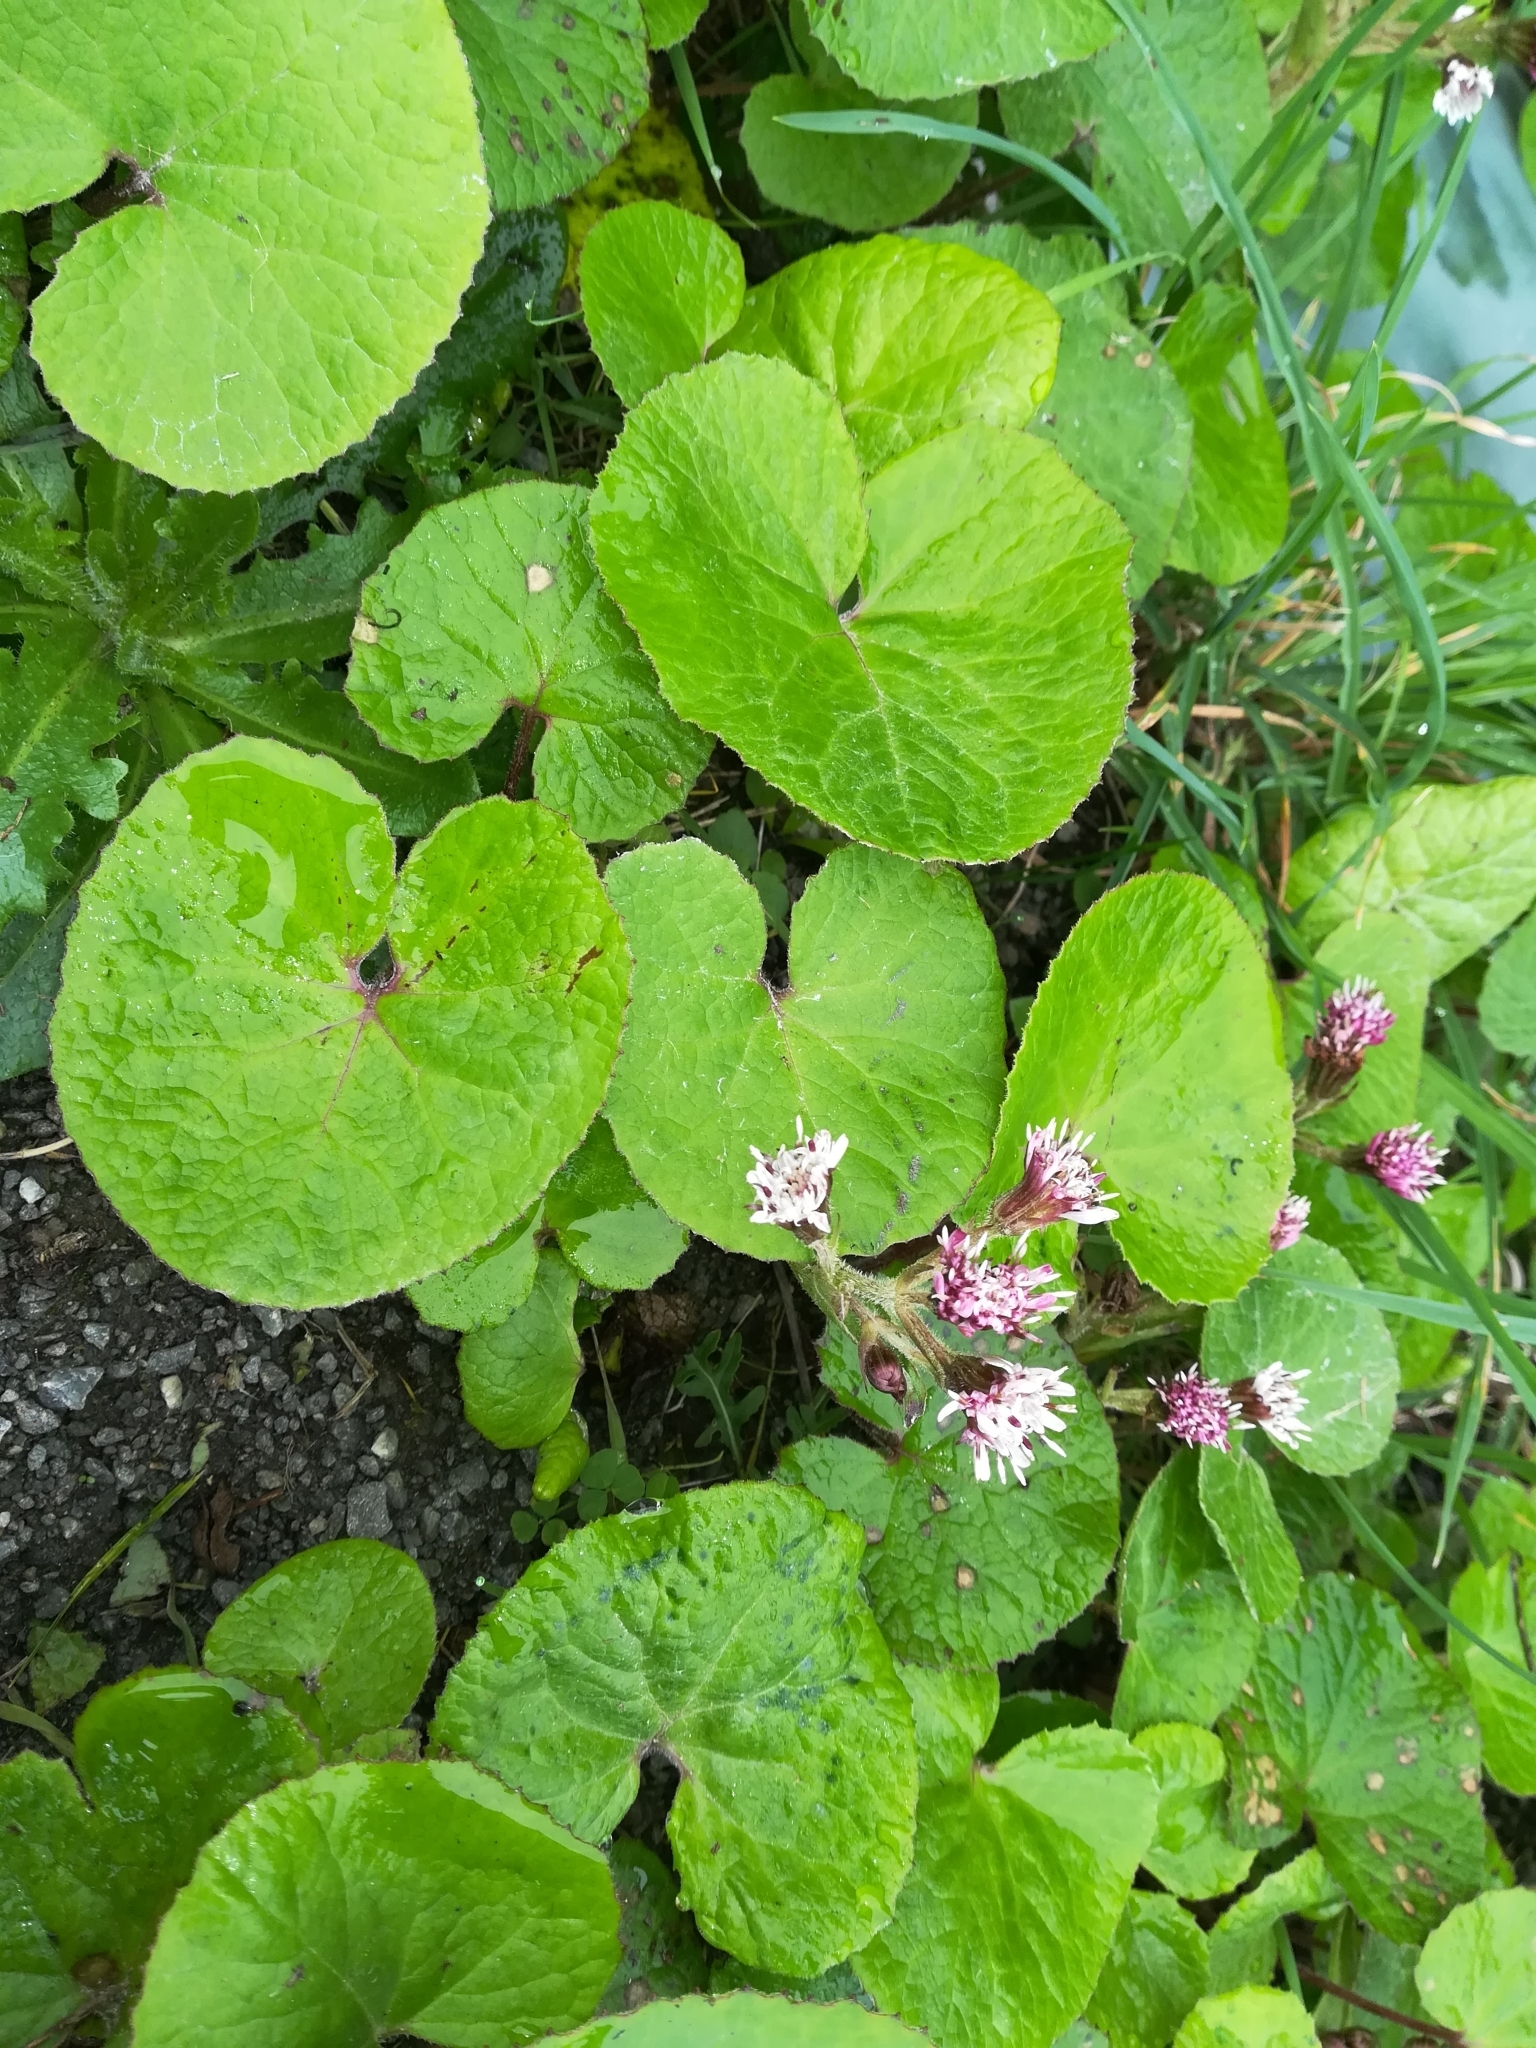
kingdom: Plantae
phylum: Tracheophyta
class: Magnoliopsida
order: Asterales
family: Asteraceae
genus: Petasites
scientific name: Petasites pyrenaicus
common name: Winter heliotrope
